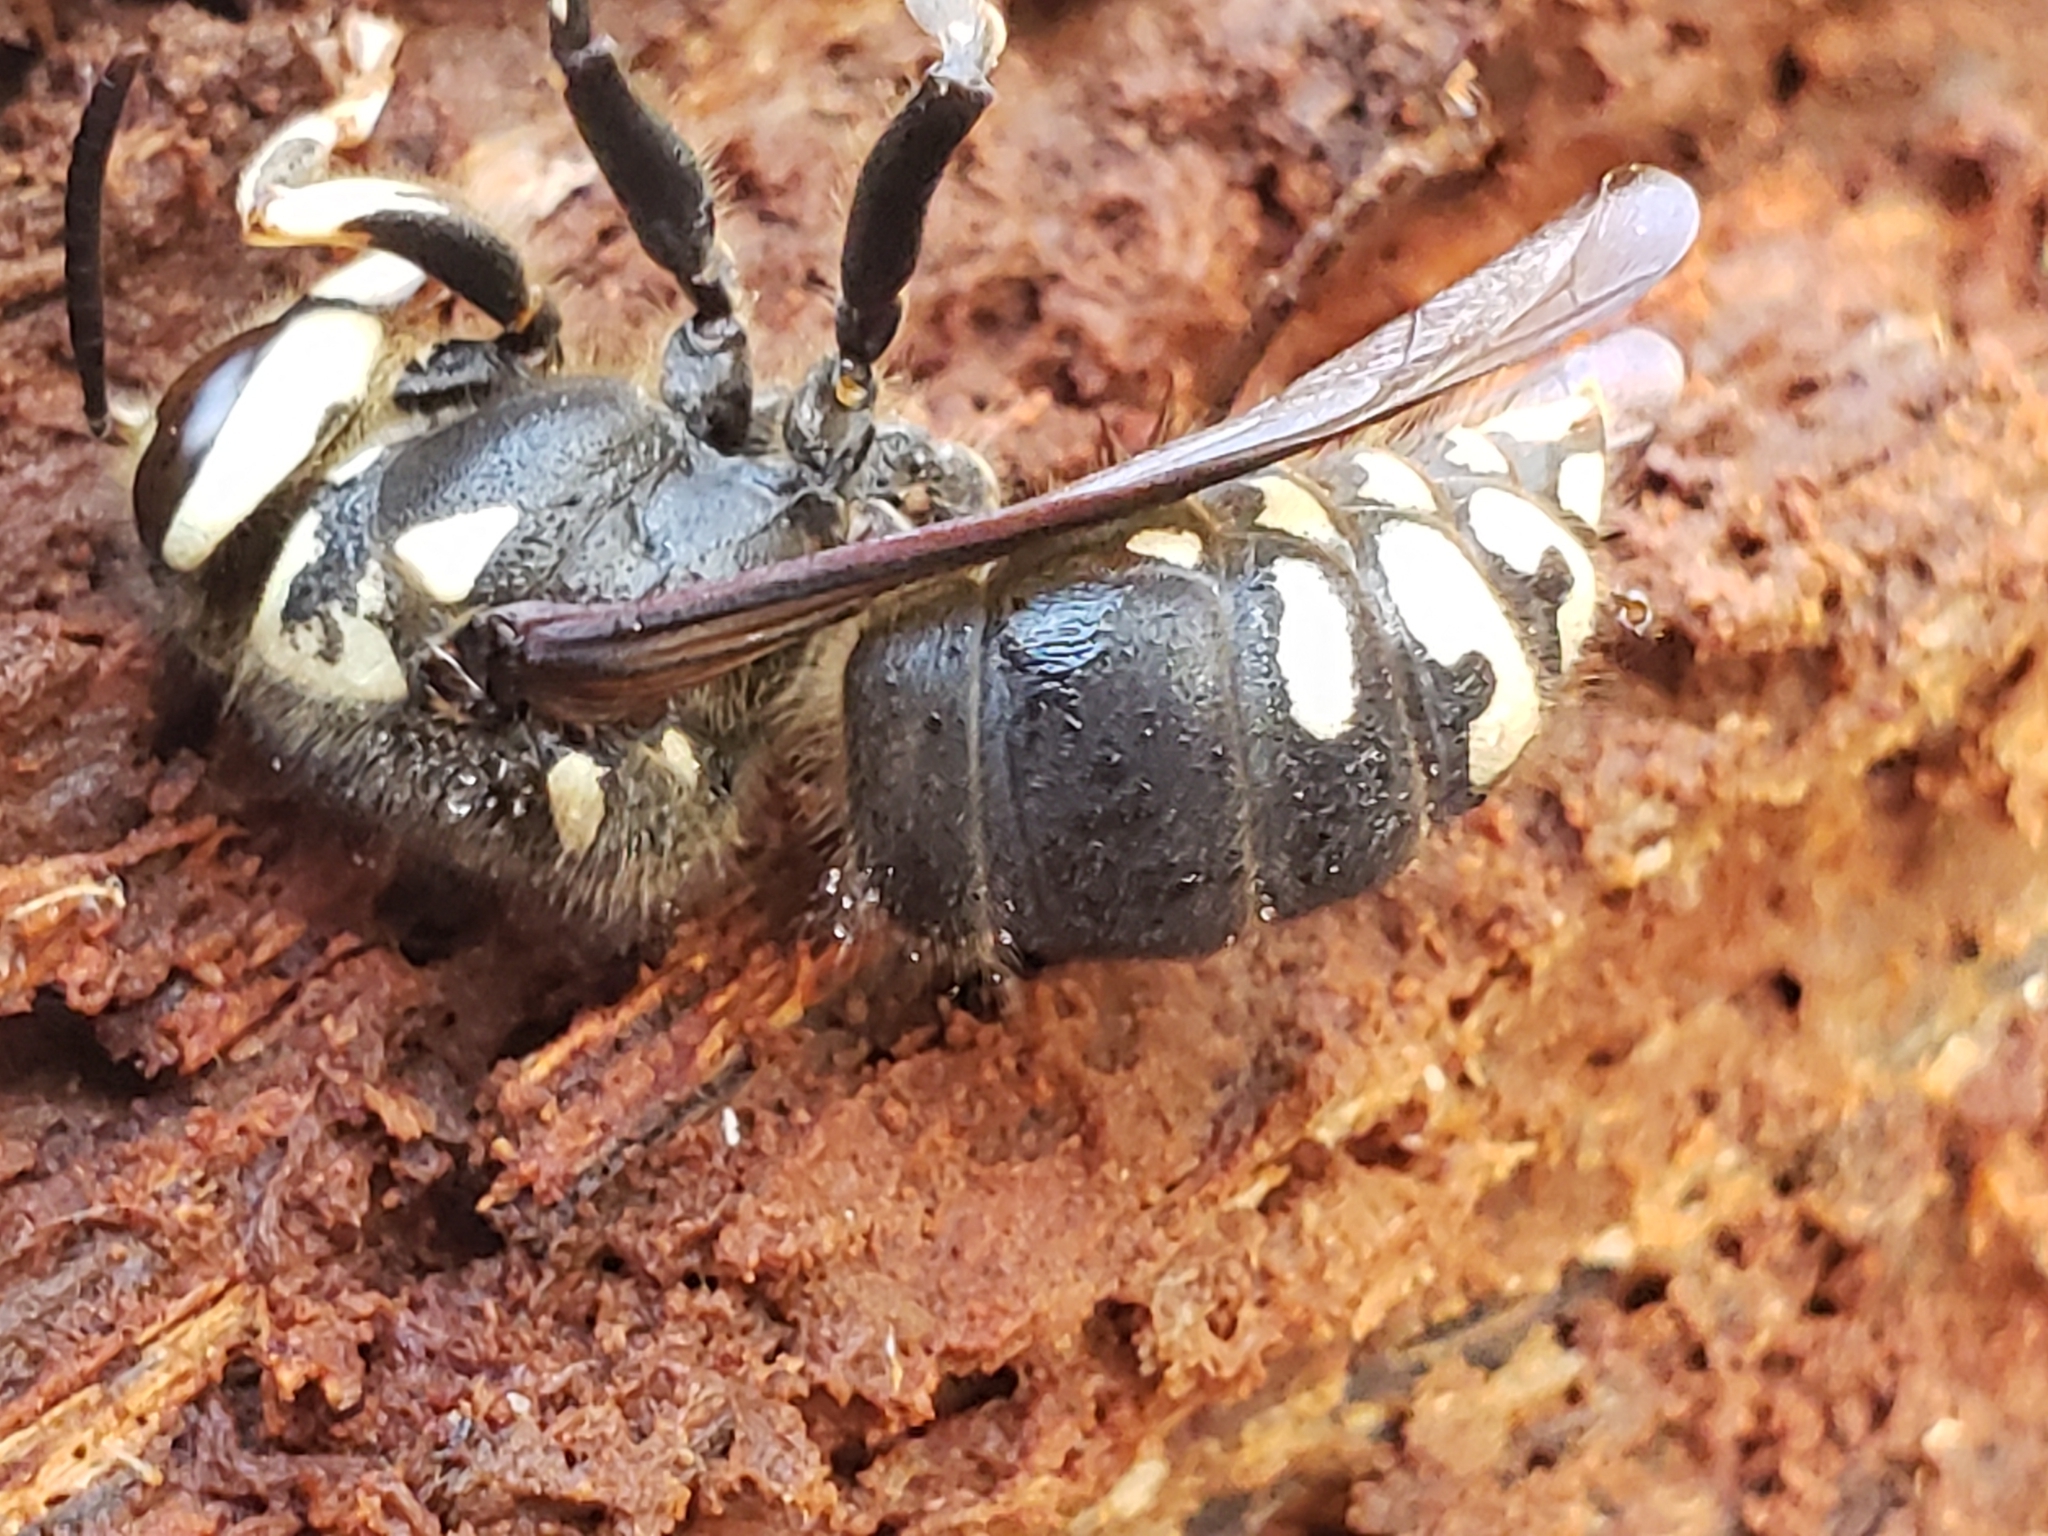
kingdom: Animalia
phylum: Arthropoda
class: Insecta
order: Hymenoptera
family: Vespidae
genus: Dolichovespula
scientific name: Dolichovespula maculata
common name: Bald-faced hornet
